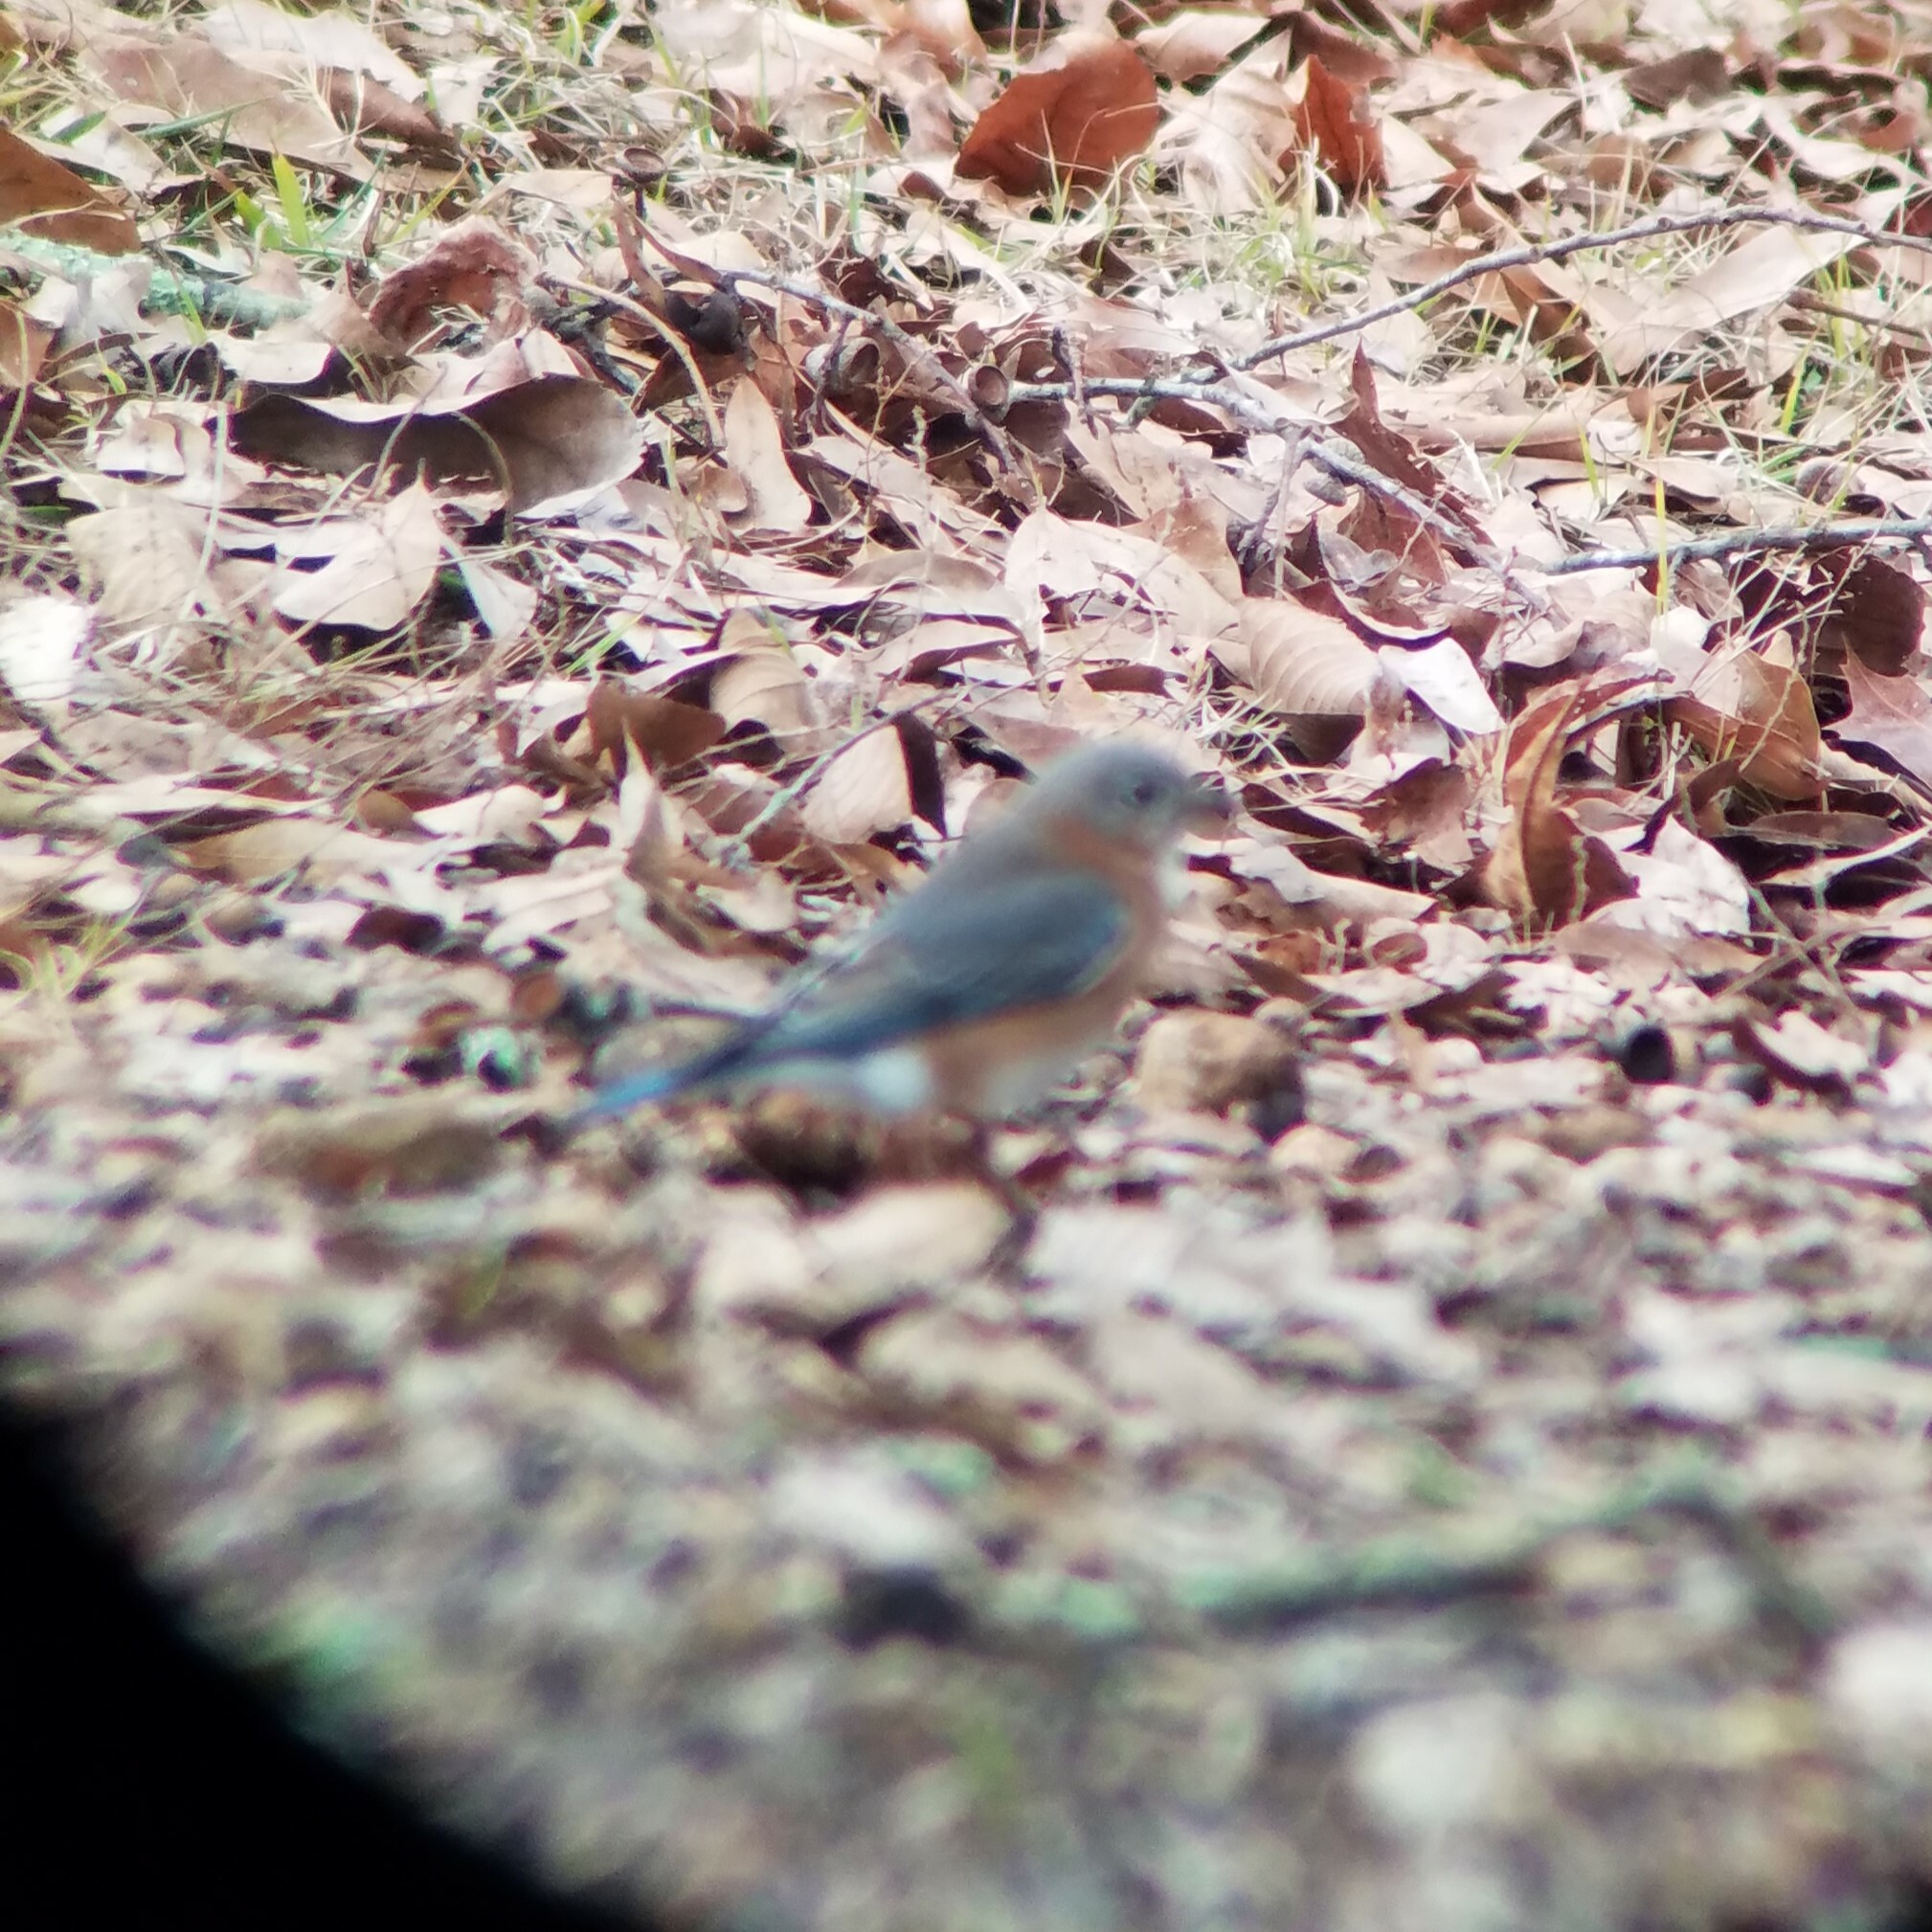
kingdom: Animalia
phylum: Chordata
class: Aves
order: Passeriformes
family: Turdidae
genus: Sialia
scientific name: Sialia sialis
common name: Eastern bluebird
